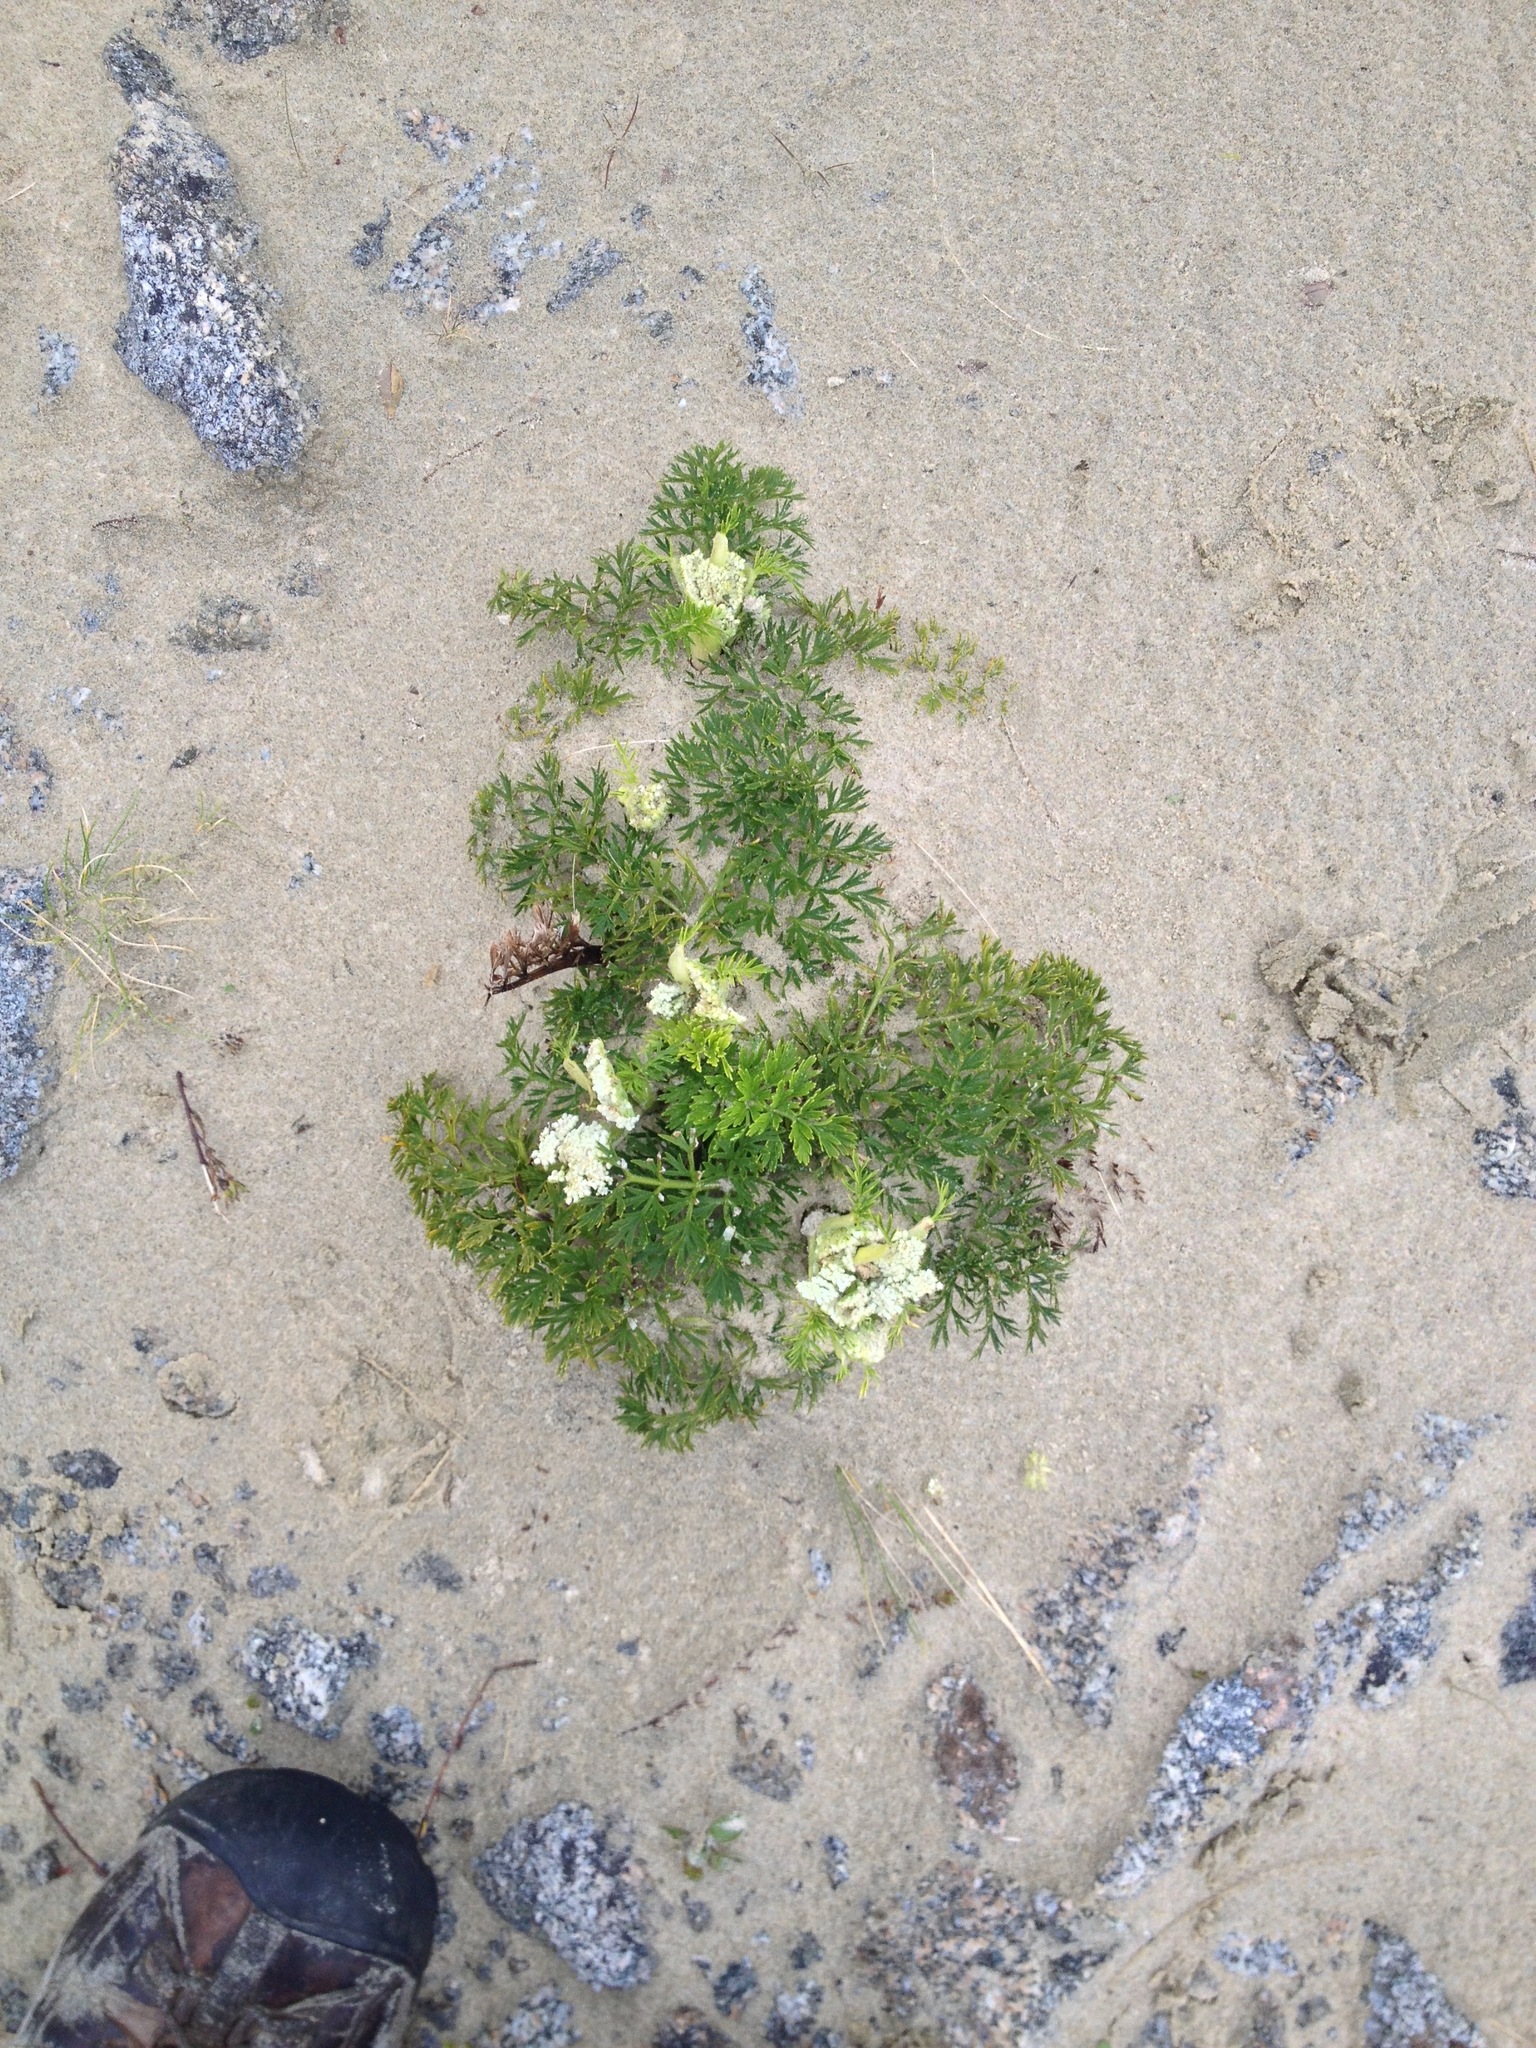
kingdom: Plantae
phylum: Tracheophyta
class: Magnoliopsida
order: Apiales
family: Apiaceae
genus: Anisotome
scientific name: Anisotome lyallii
